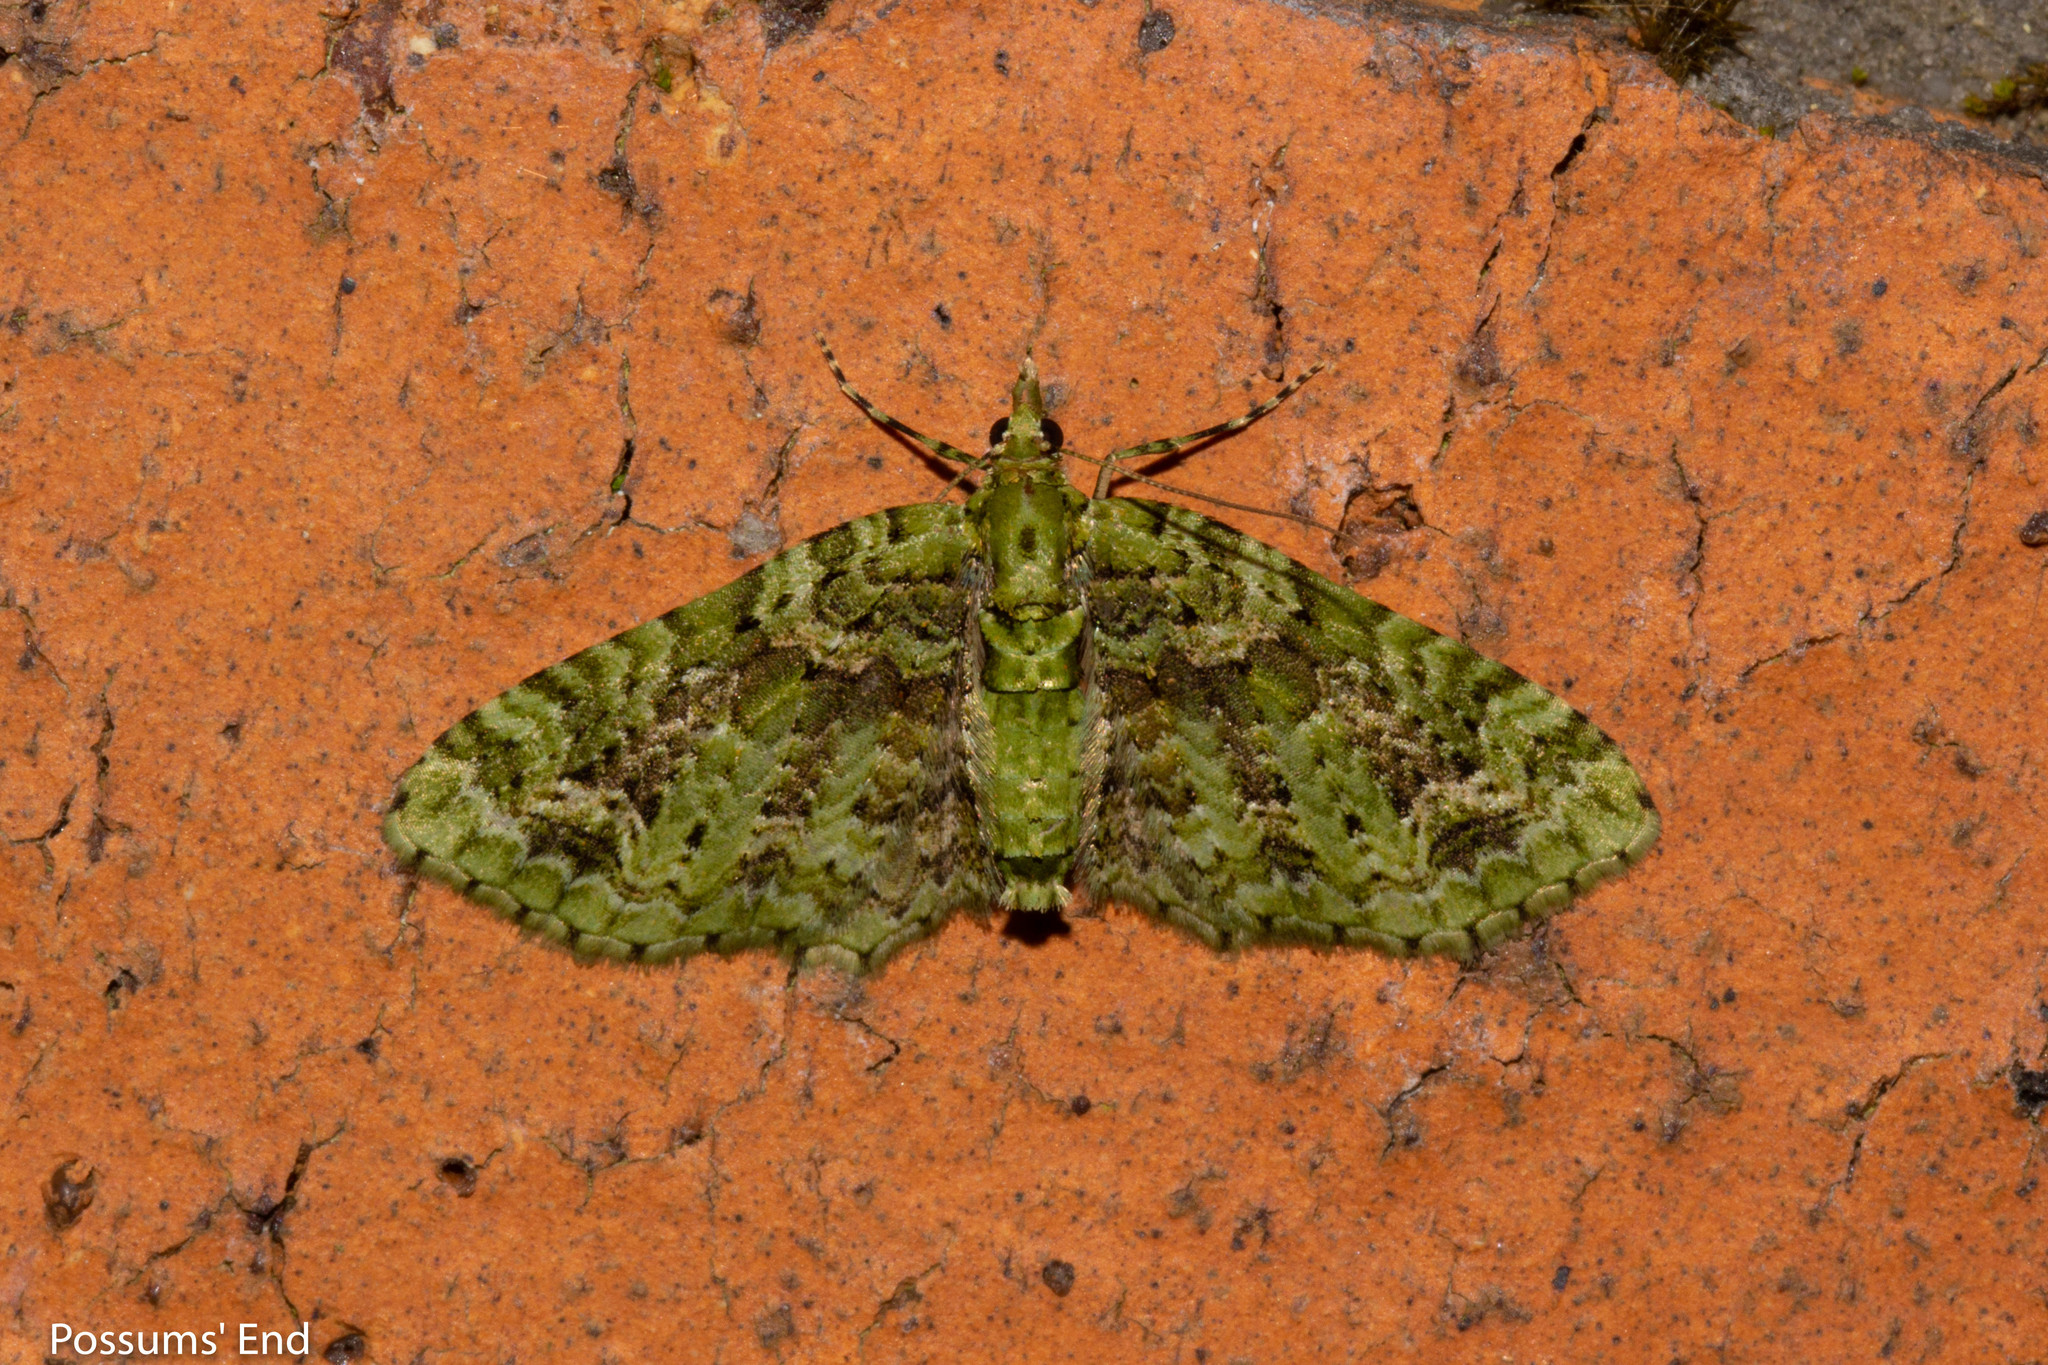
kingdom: Animalia
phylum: Arthropoda
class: Insecta
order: Lepidoptera
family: Geometridae
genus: Pasiphila
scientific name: Pasiphila muscosata
